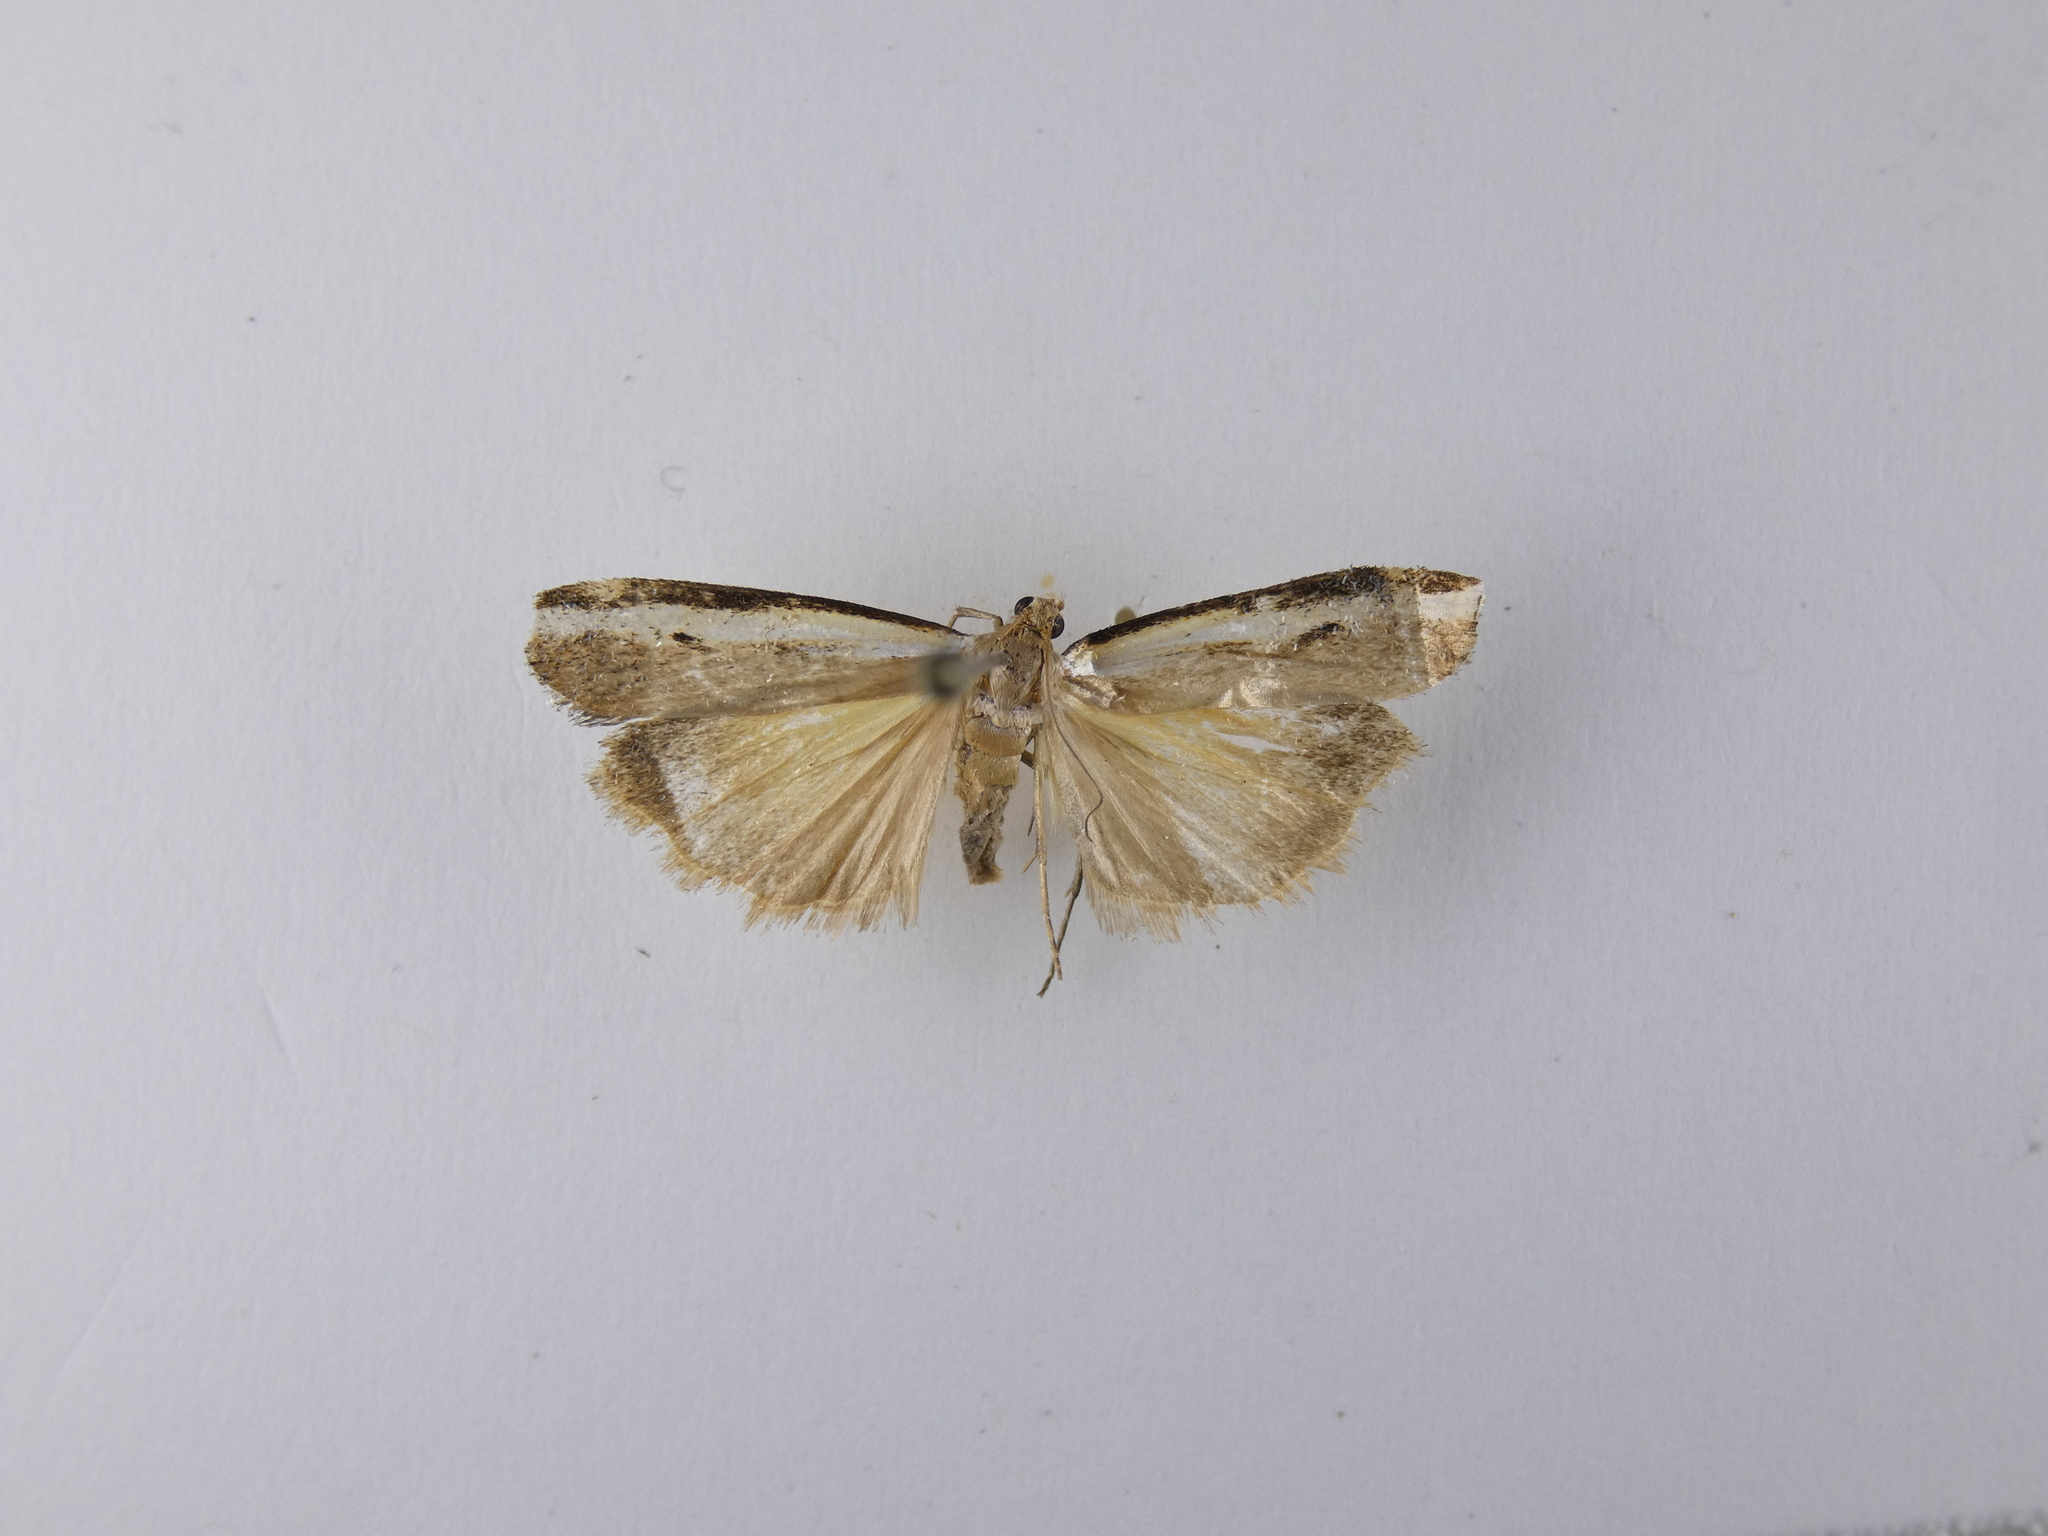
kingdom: Animalia
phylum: Arthropoda
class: Insecta
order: Lepidoptera
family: Crambidae
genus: Orocrambus
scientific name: Orocrambus flexuosellus
